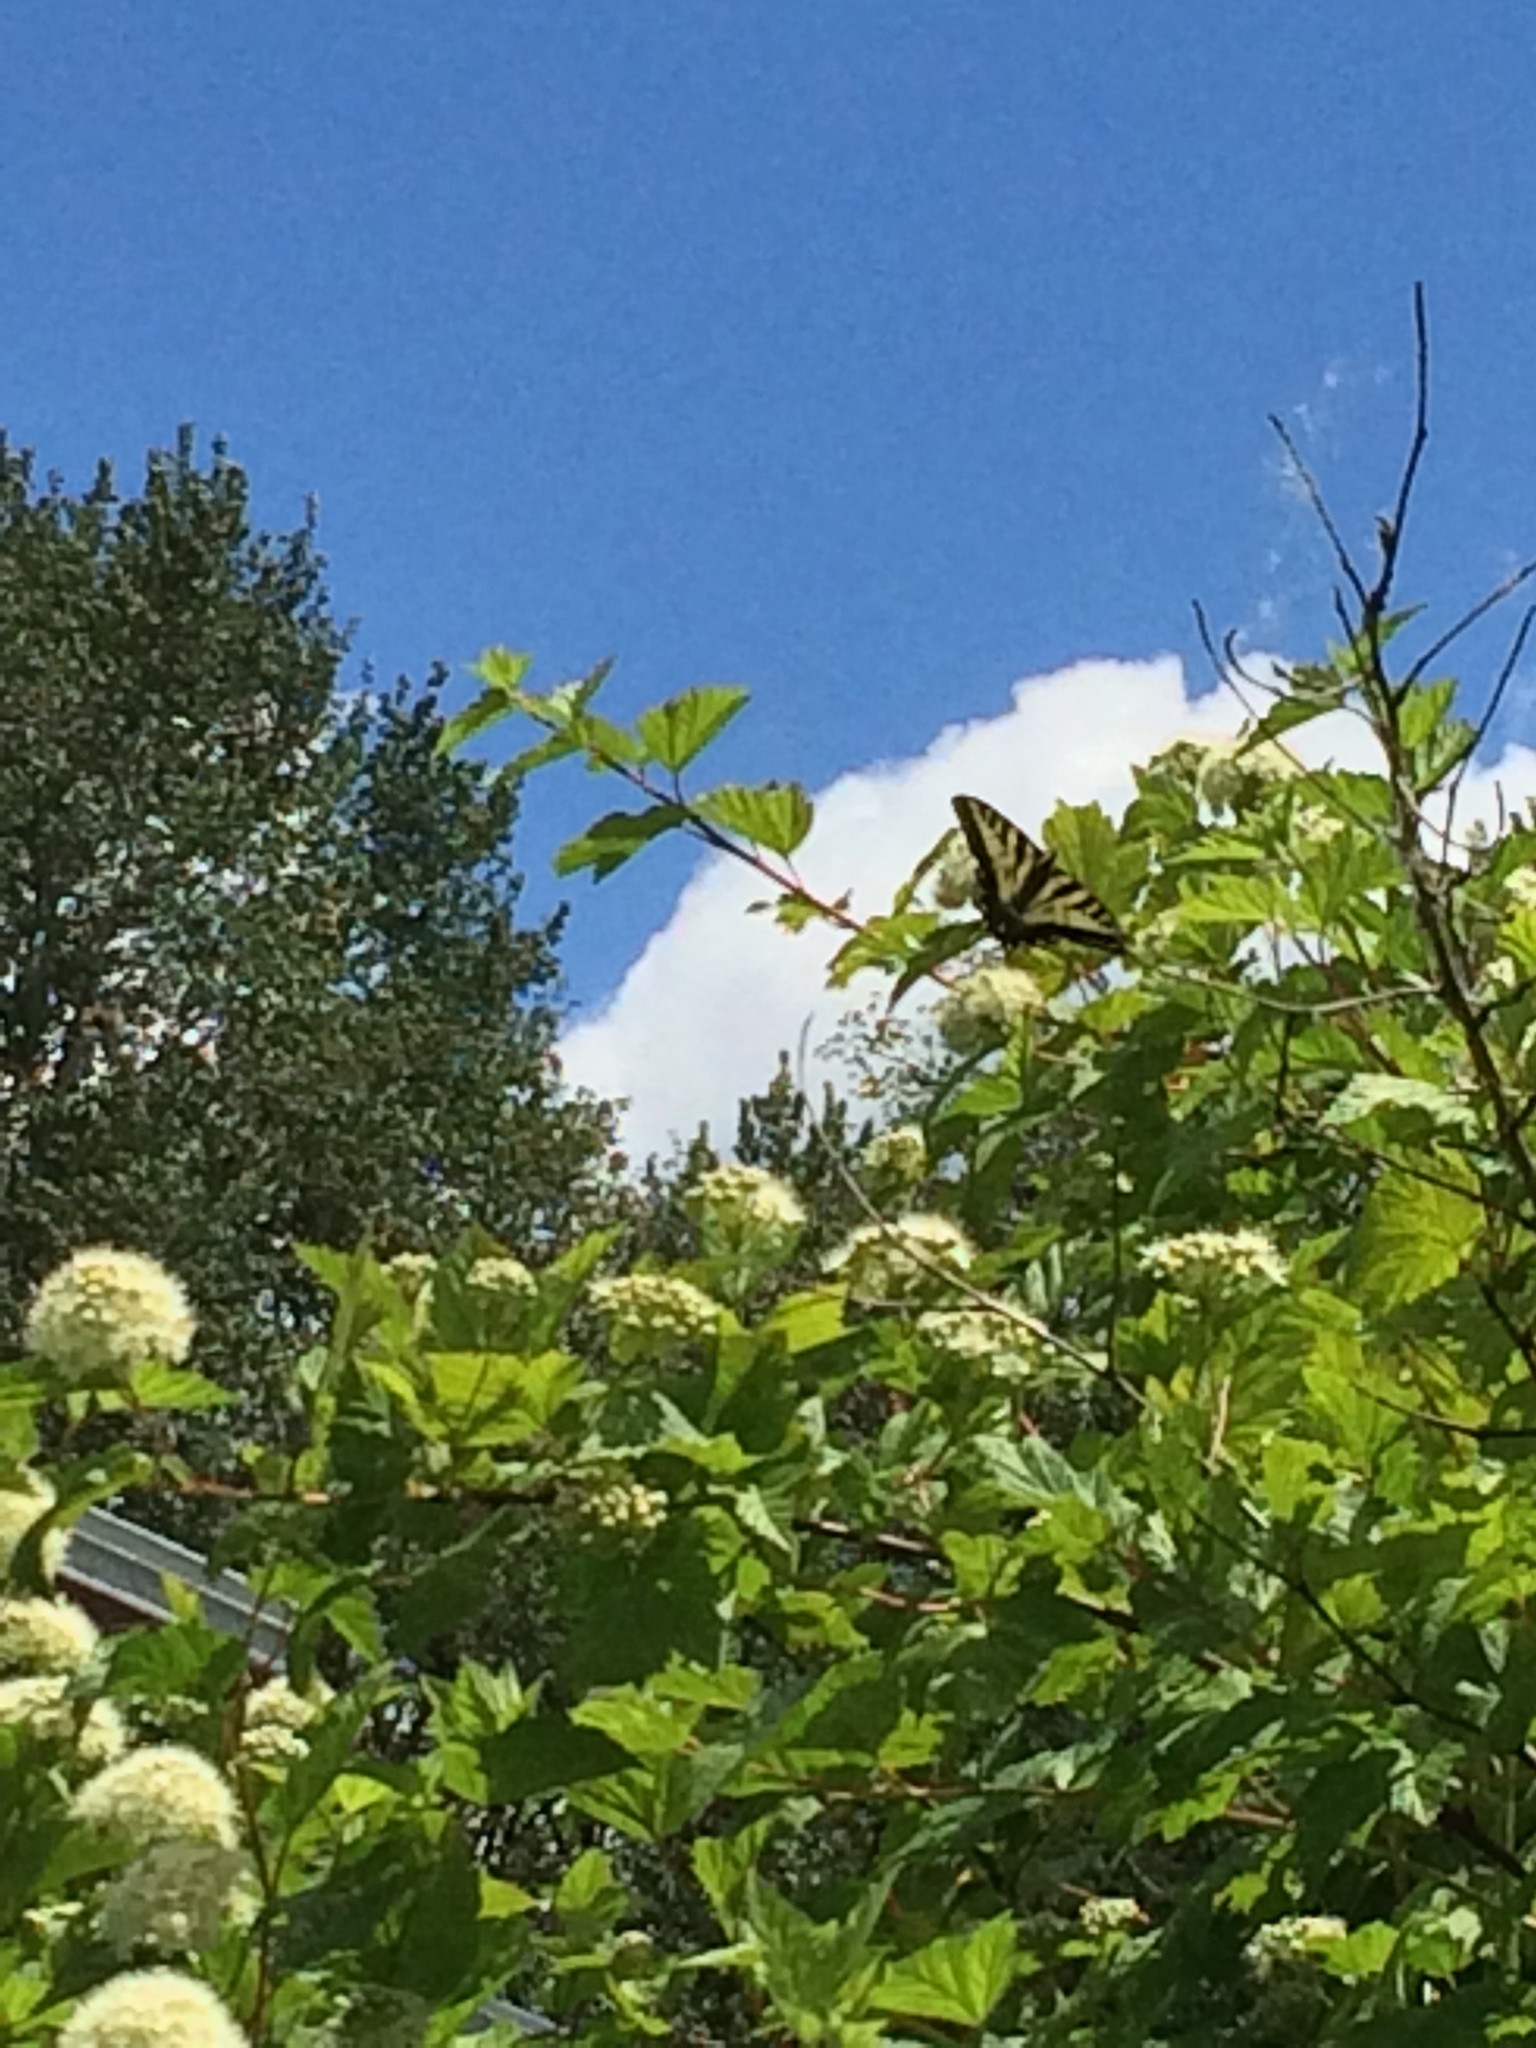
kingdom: Animalia
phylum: Arthropoda
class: Insecta
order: Lepidoptera
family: Papilionidae
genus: Papilio
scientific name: Papilio rutulus
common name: Western tiger swallowtail
